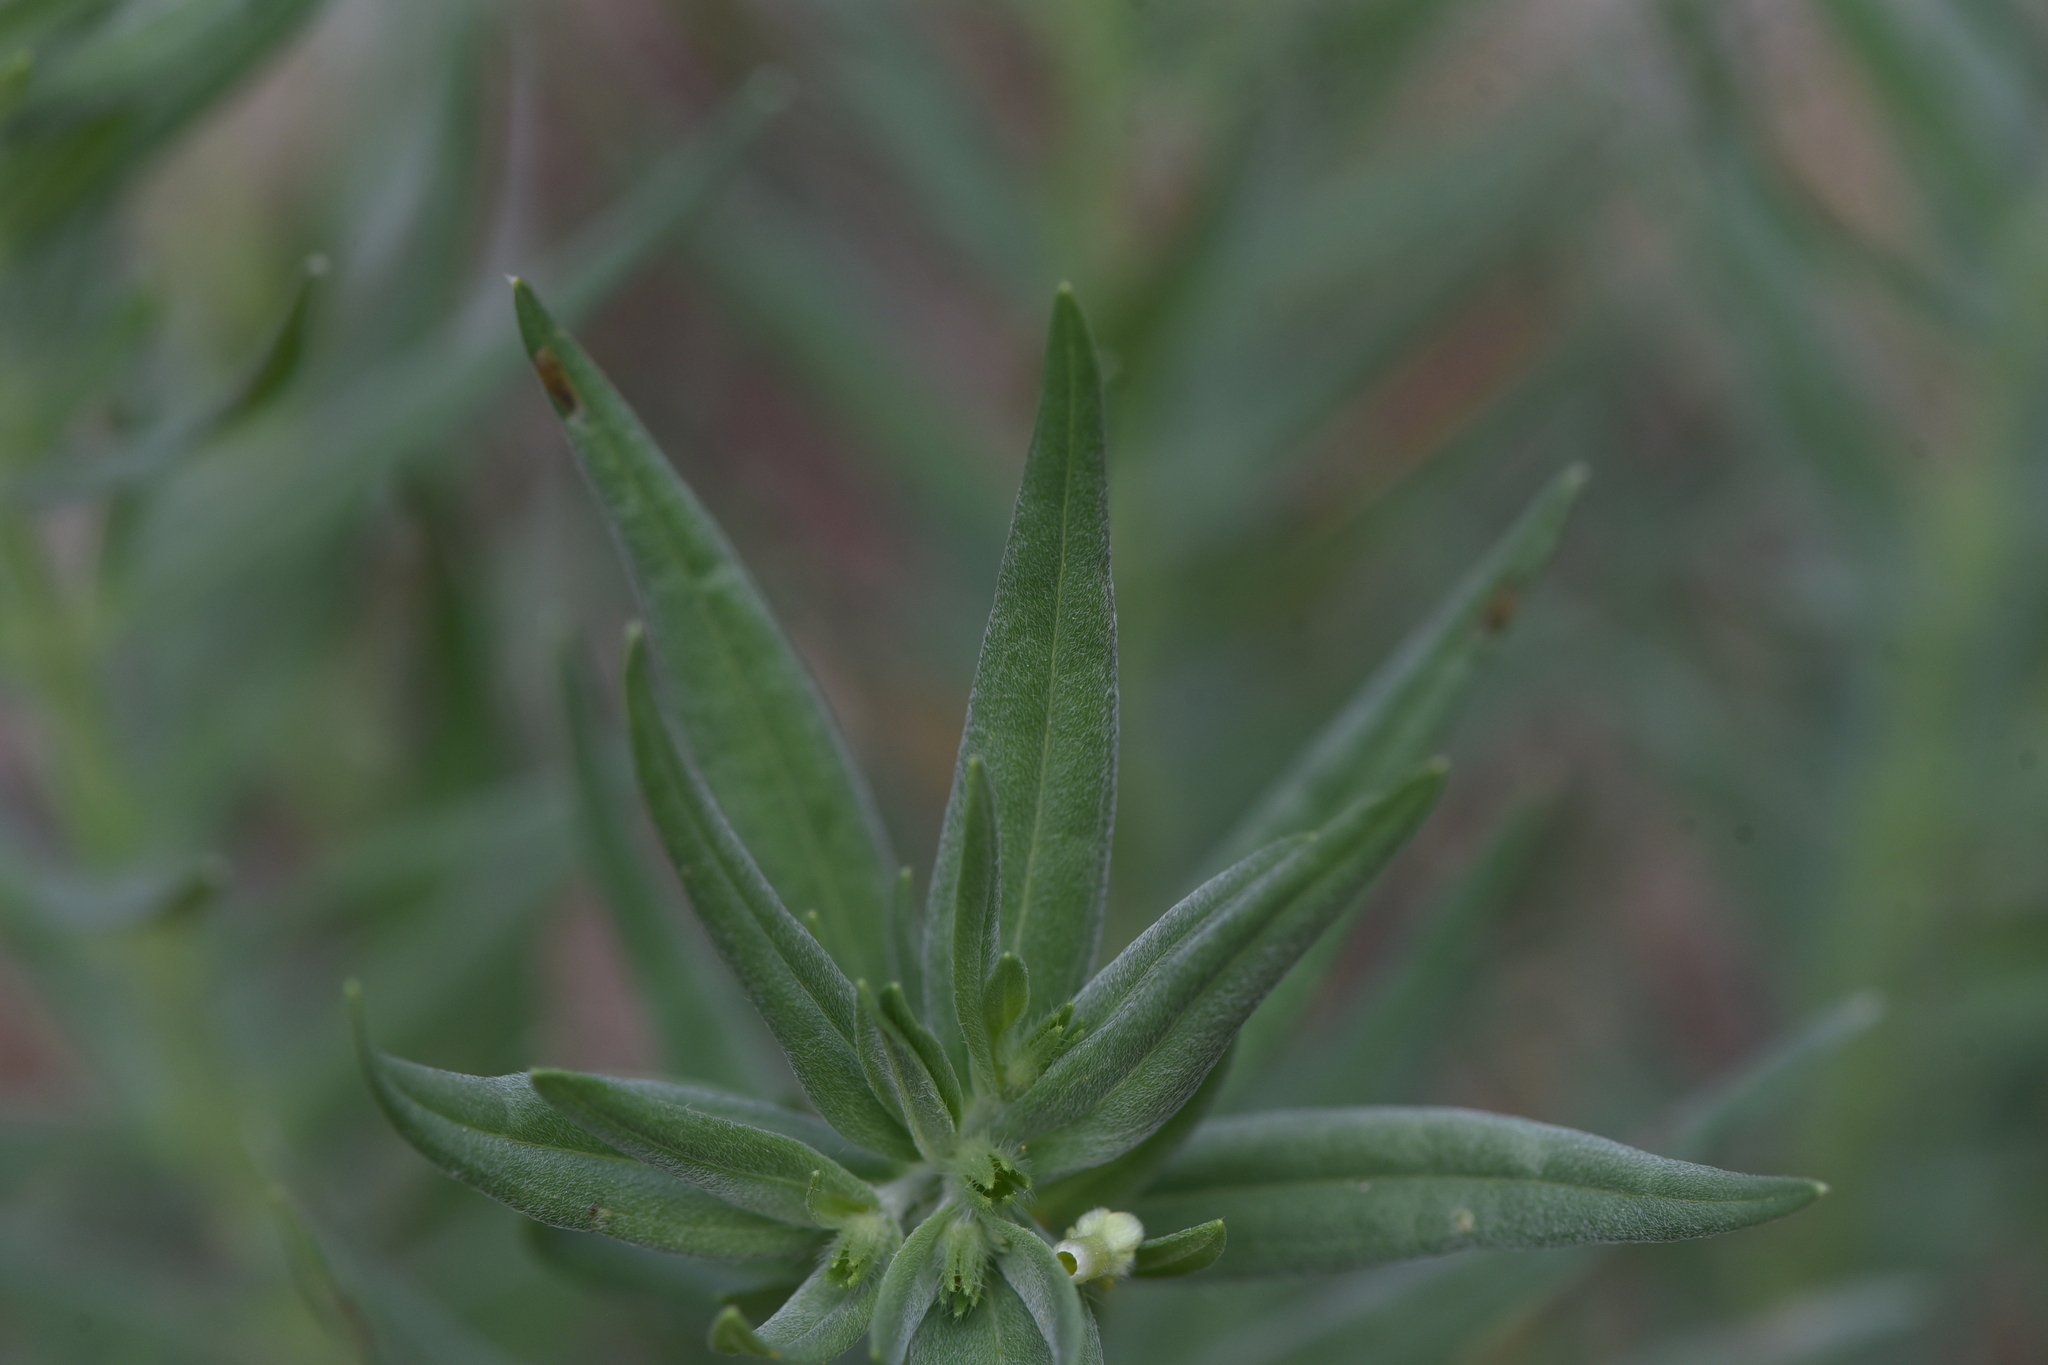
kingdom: Plantae
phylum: Tracheophyta
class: Magnoliopsida
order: Boraginales
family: Boraginaceae
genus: Lithospermum
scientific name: Lithospermum ruderale
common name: Western gromwell
